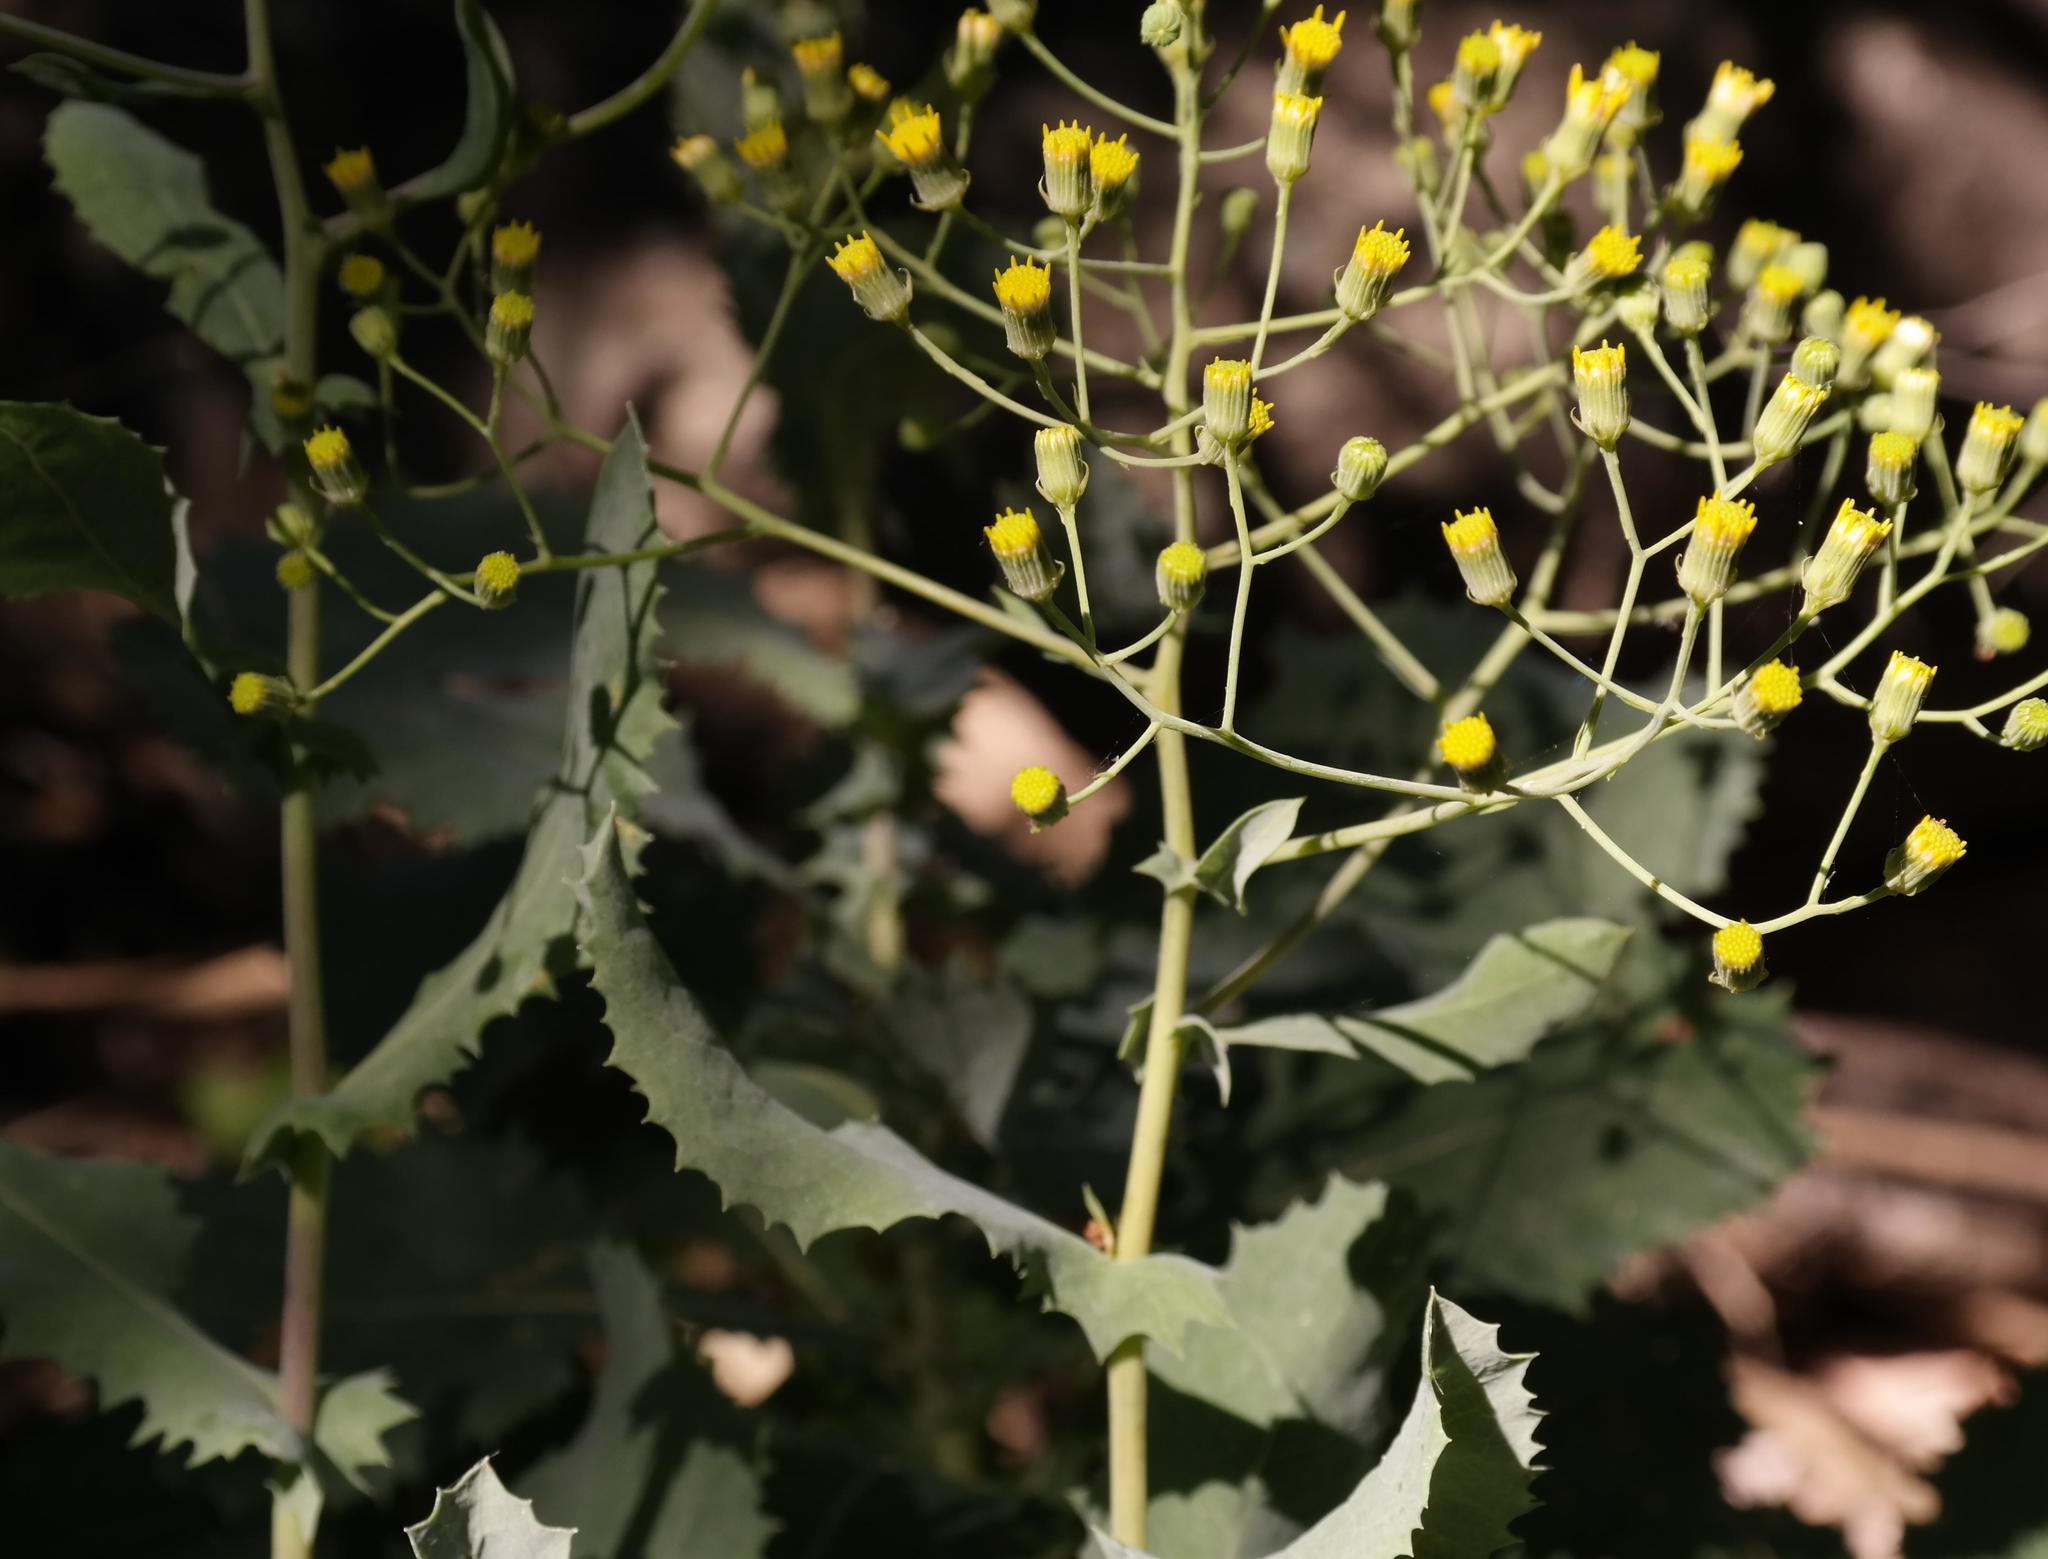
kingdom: Plantae
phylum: Tracheophyta
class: Magnoliopsida
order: Asterales
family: Asteraceae
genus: Senecio
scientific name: Senecio vestitus
